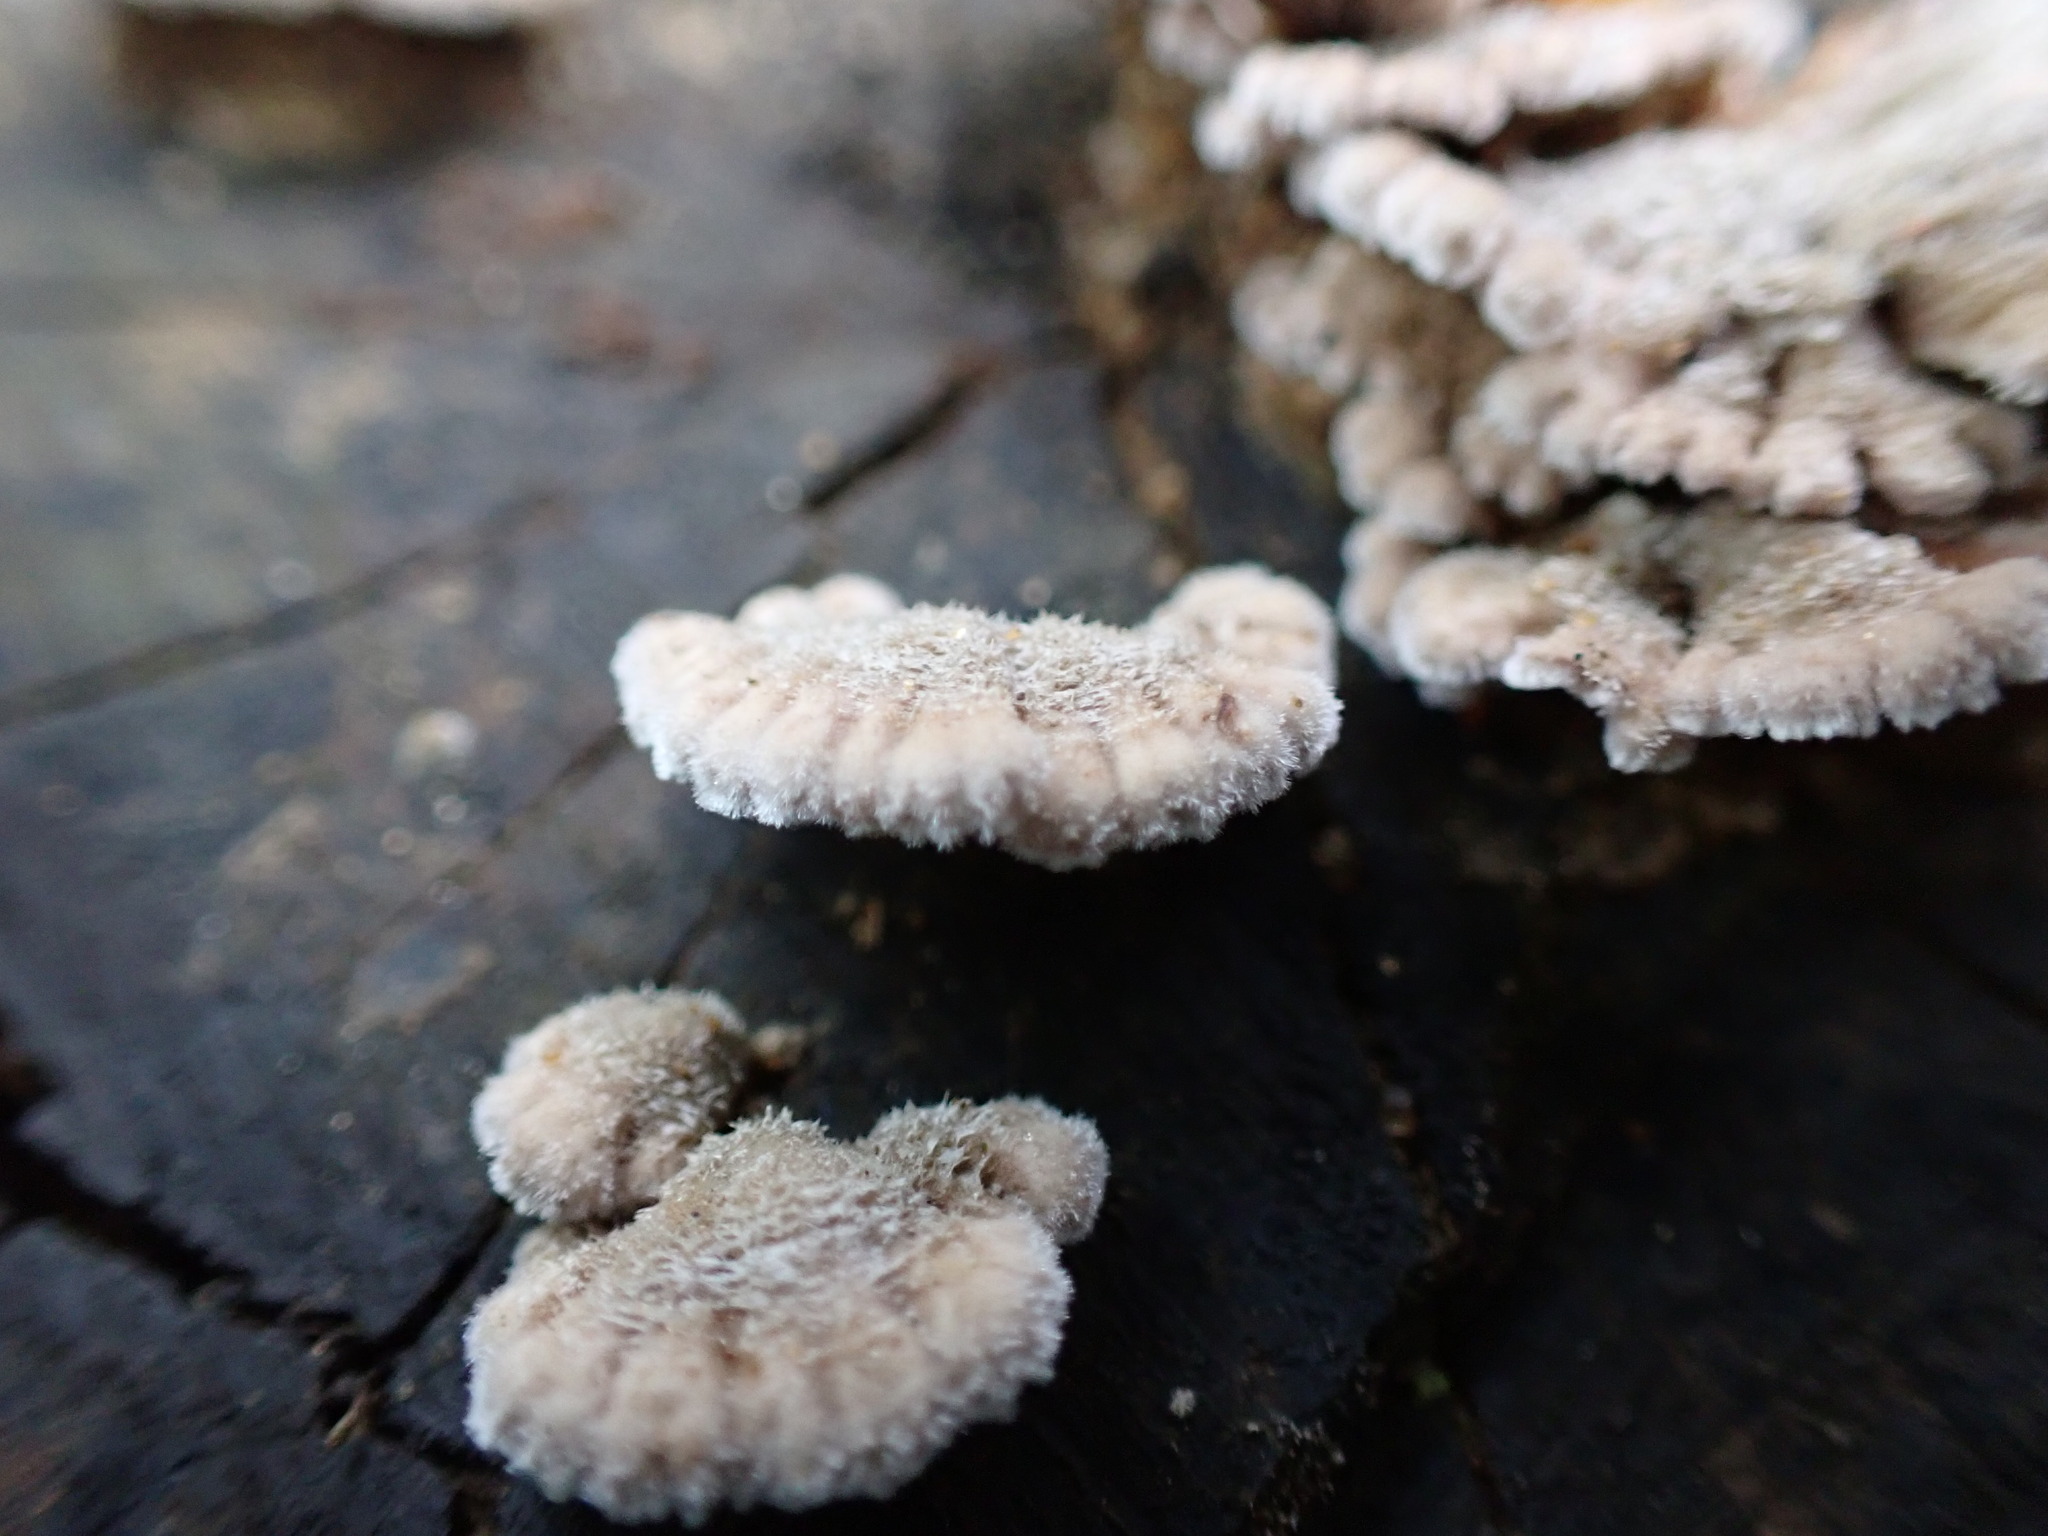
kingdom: Fungi
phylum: Basidiomycota
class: Agaricomycetes
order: Agaricales
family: Schizophyllaceae
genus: Schizophyllum
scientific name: Schizophyllum commune
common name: Common porecrust
